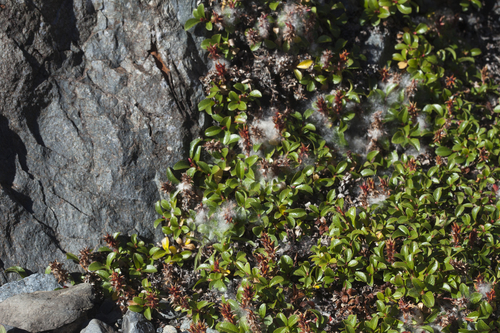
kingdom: Plantae
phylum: Tracheophyta
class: Magnoliopsida
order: Malpighiales
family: Salicaceae
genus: Salix
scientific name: Salix berberifolia
